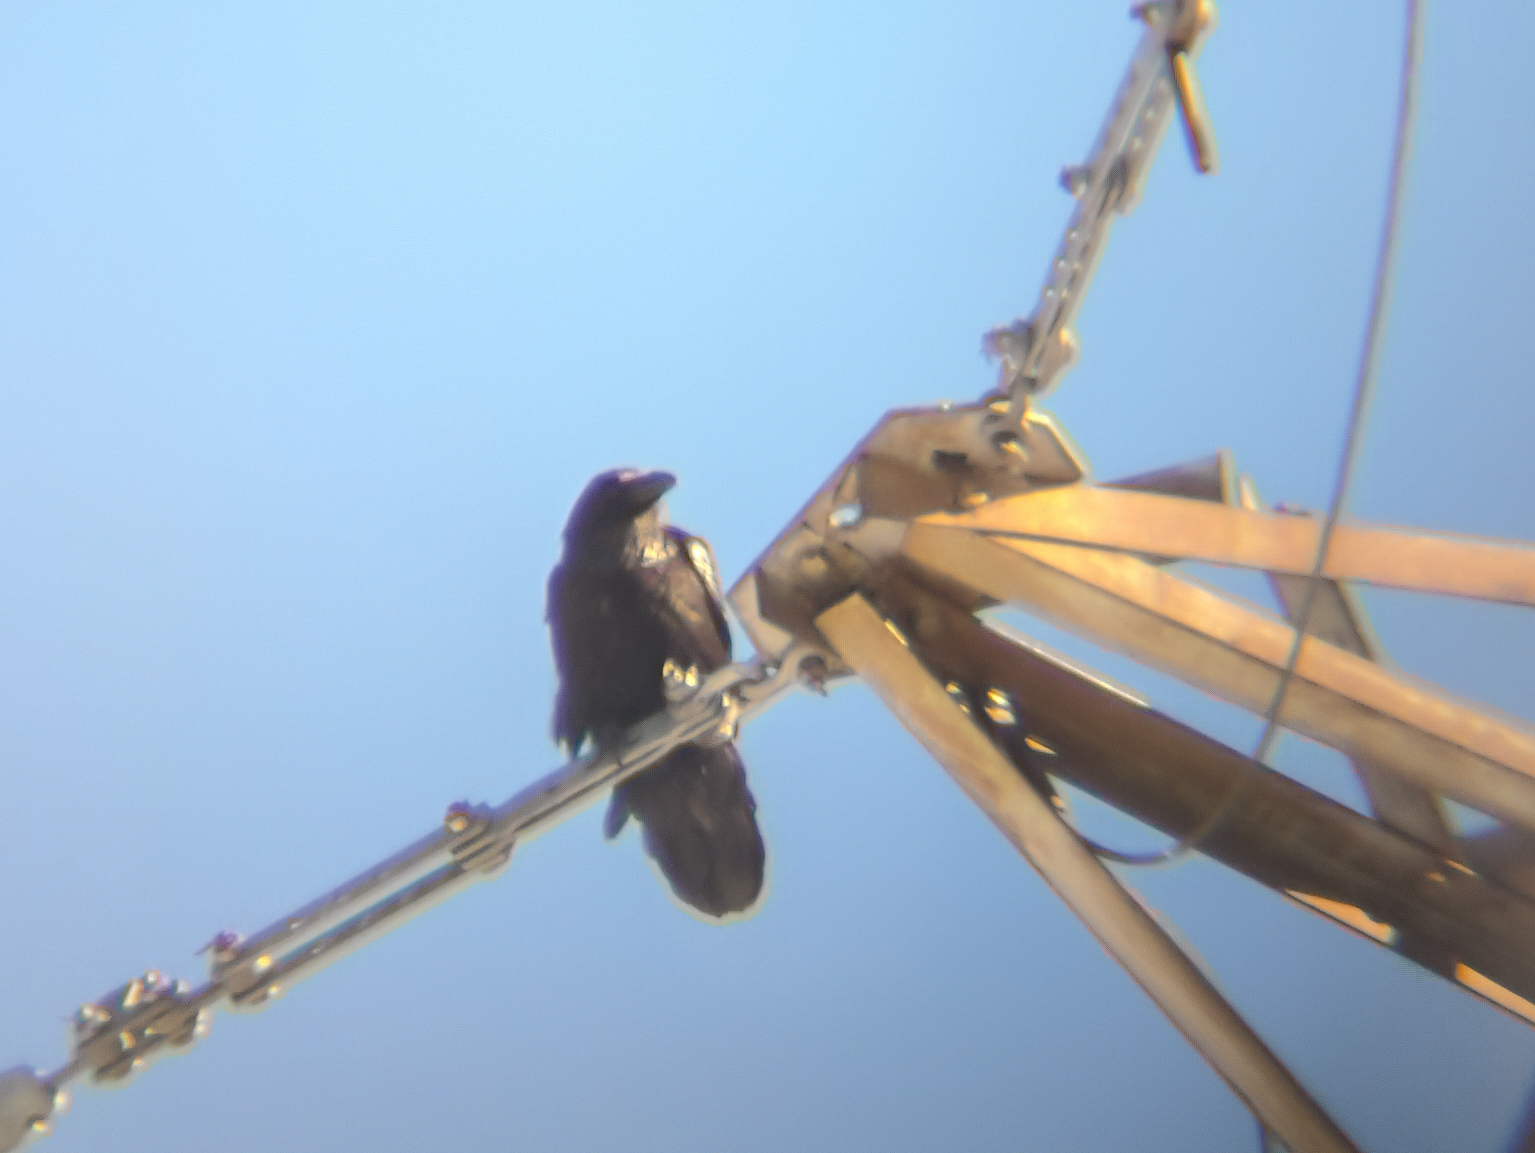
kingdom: Animalia
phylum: Chordata
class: Aves
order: Passeriformes
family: Corvidae
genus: Corvus
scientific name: Corvus corax
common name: Common raven
